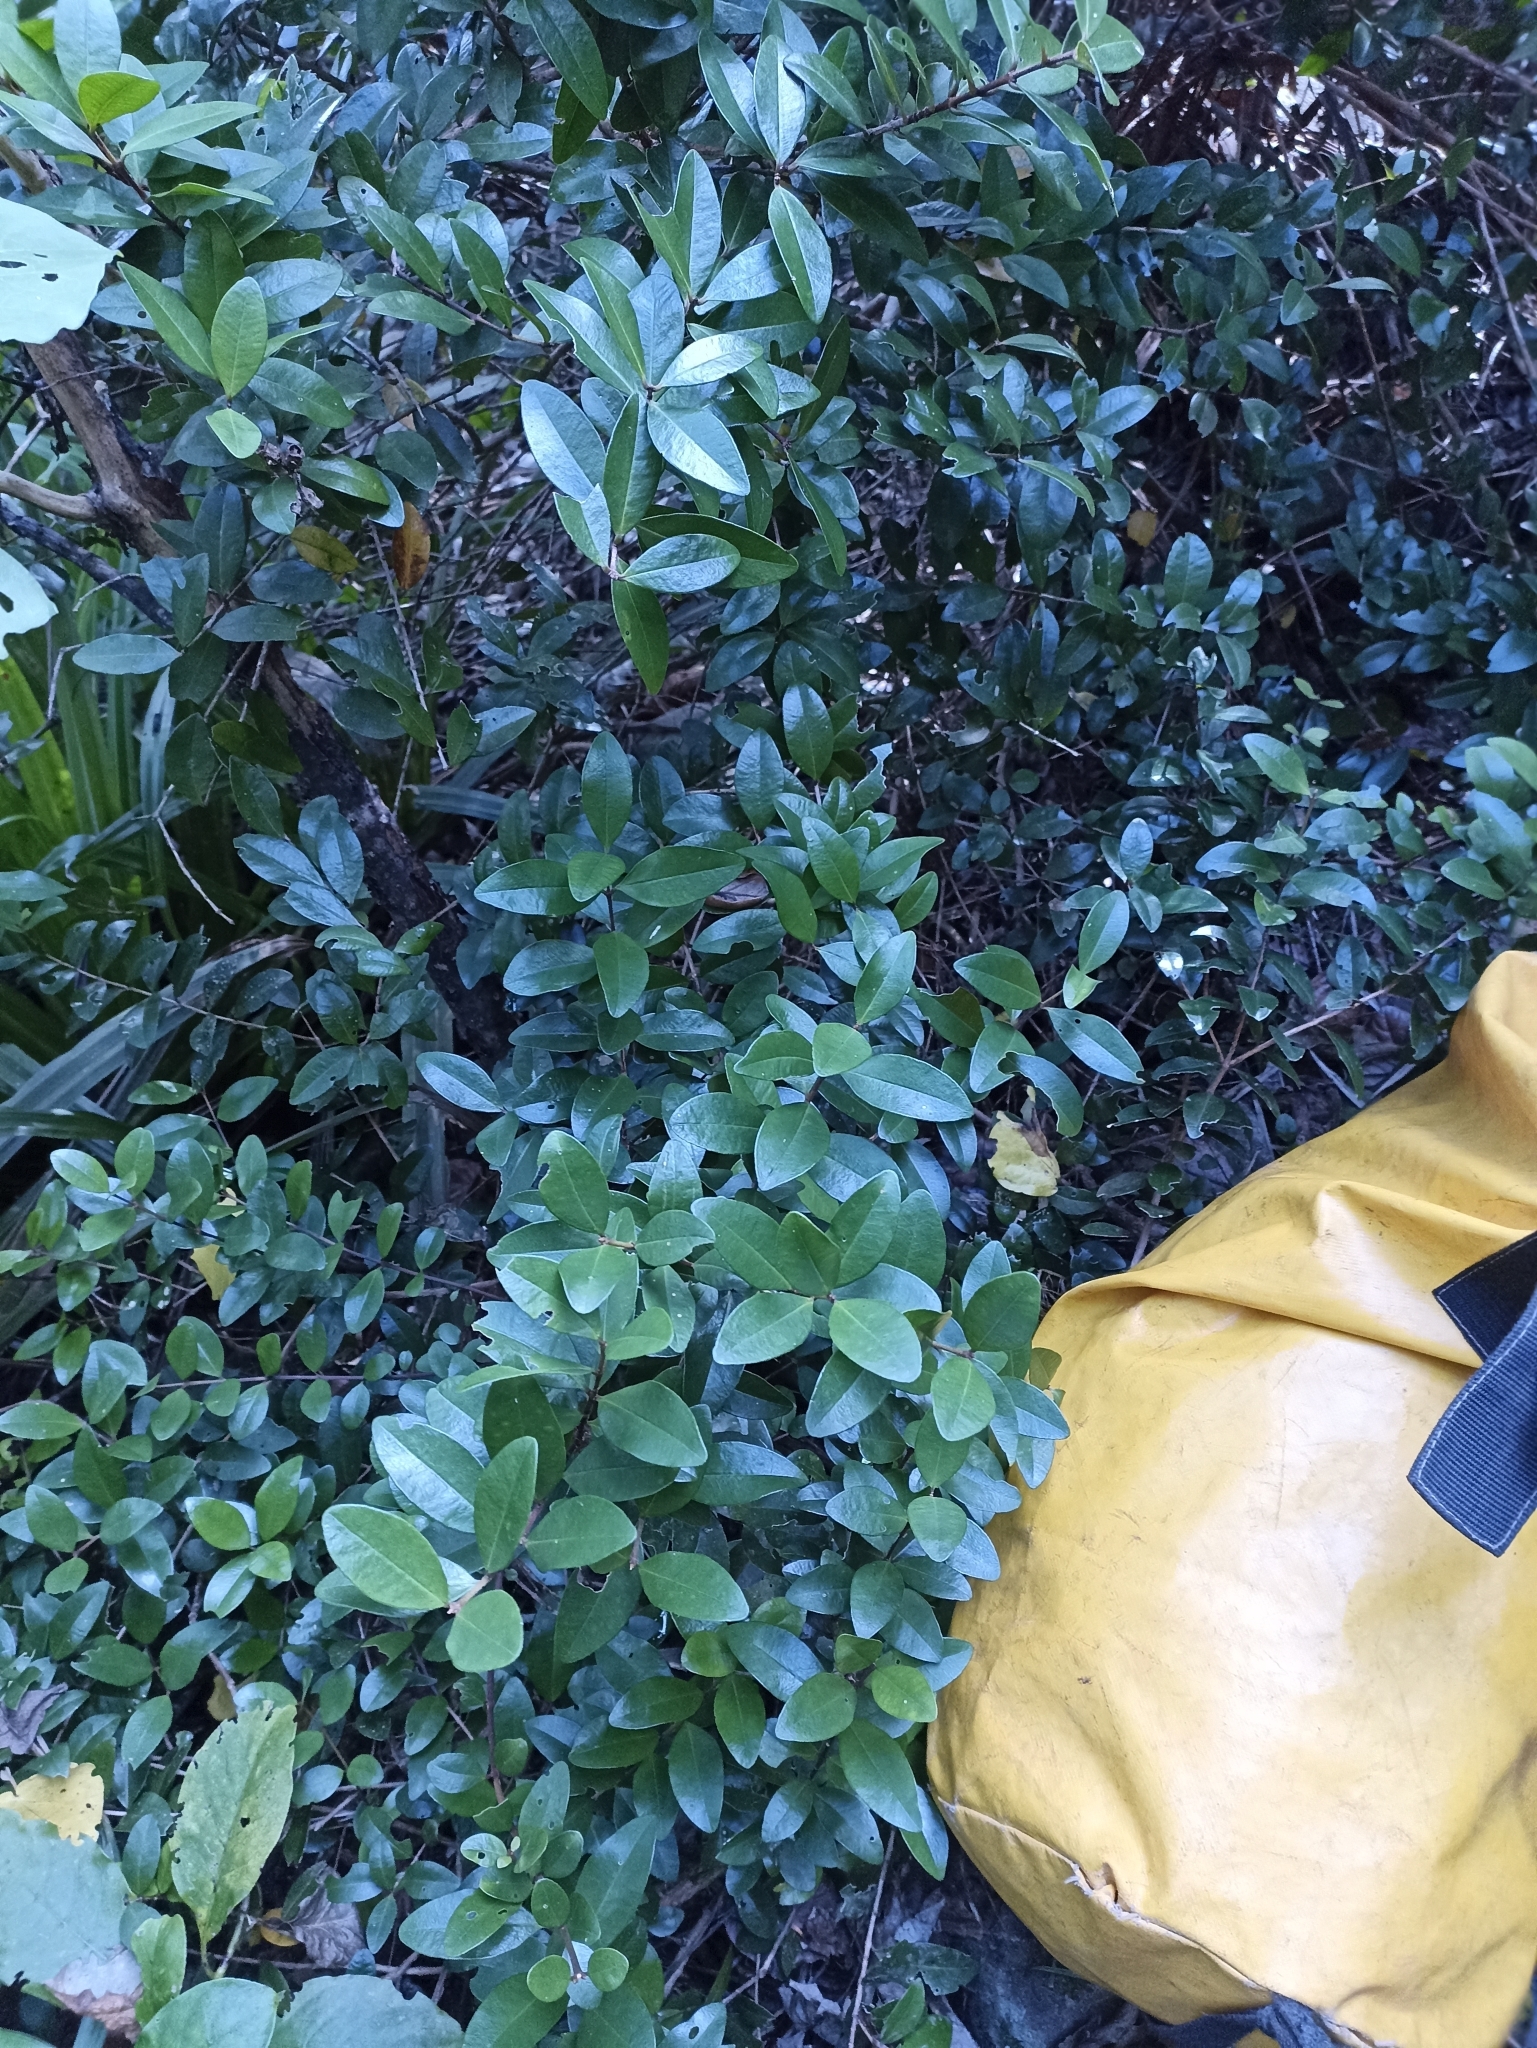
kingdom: Plantae
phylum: Tracheophyta
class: Magnoliopsida
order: Myrtales
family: Myrtaceae
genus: Metrosideros
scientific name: Metrosideros fulgens
